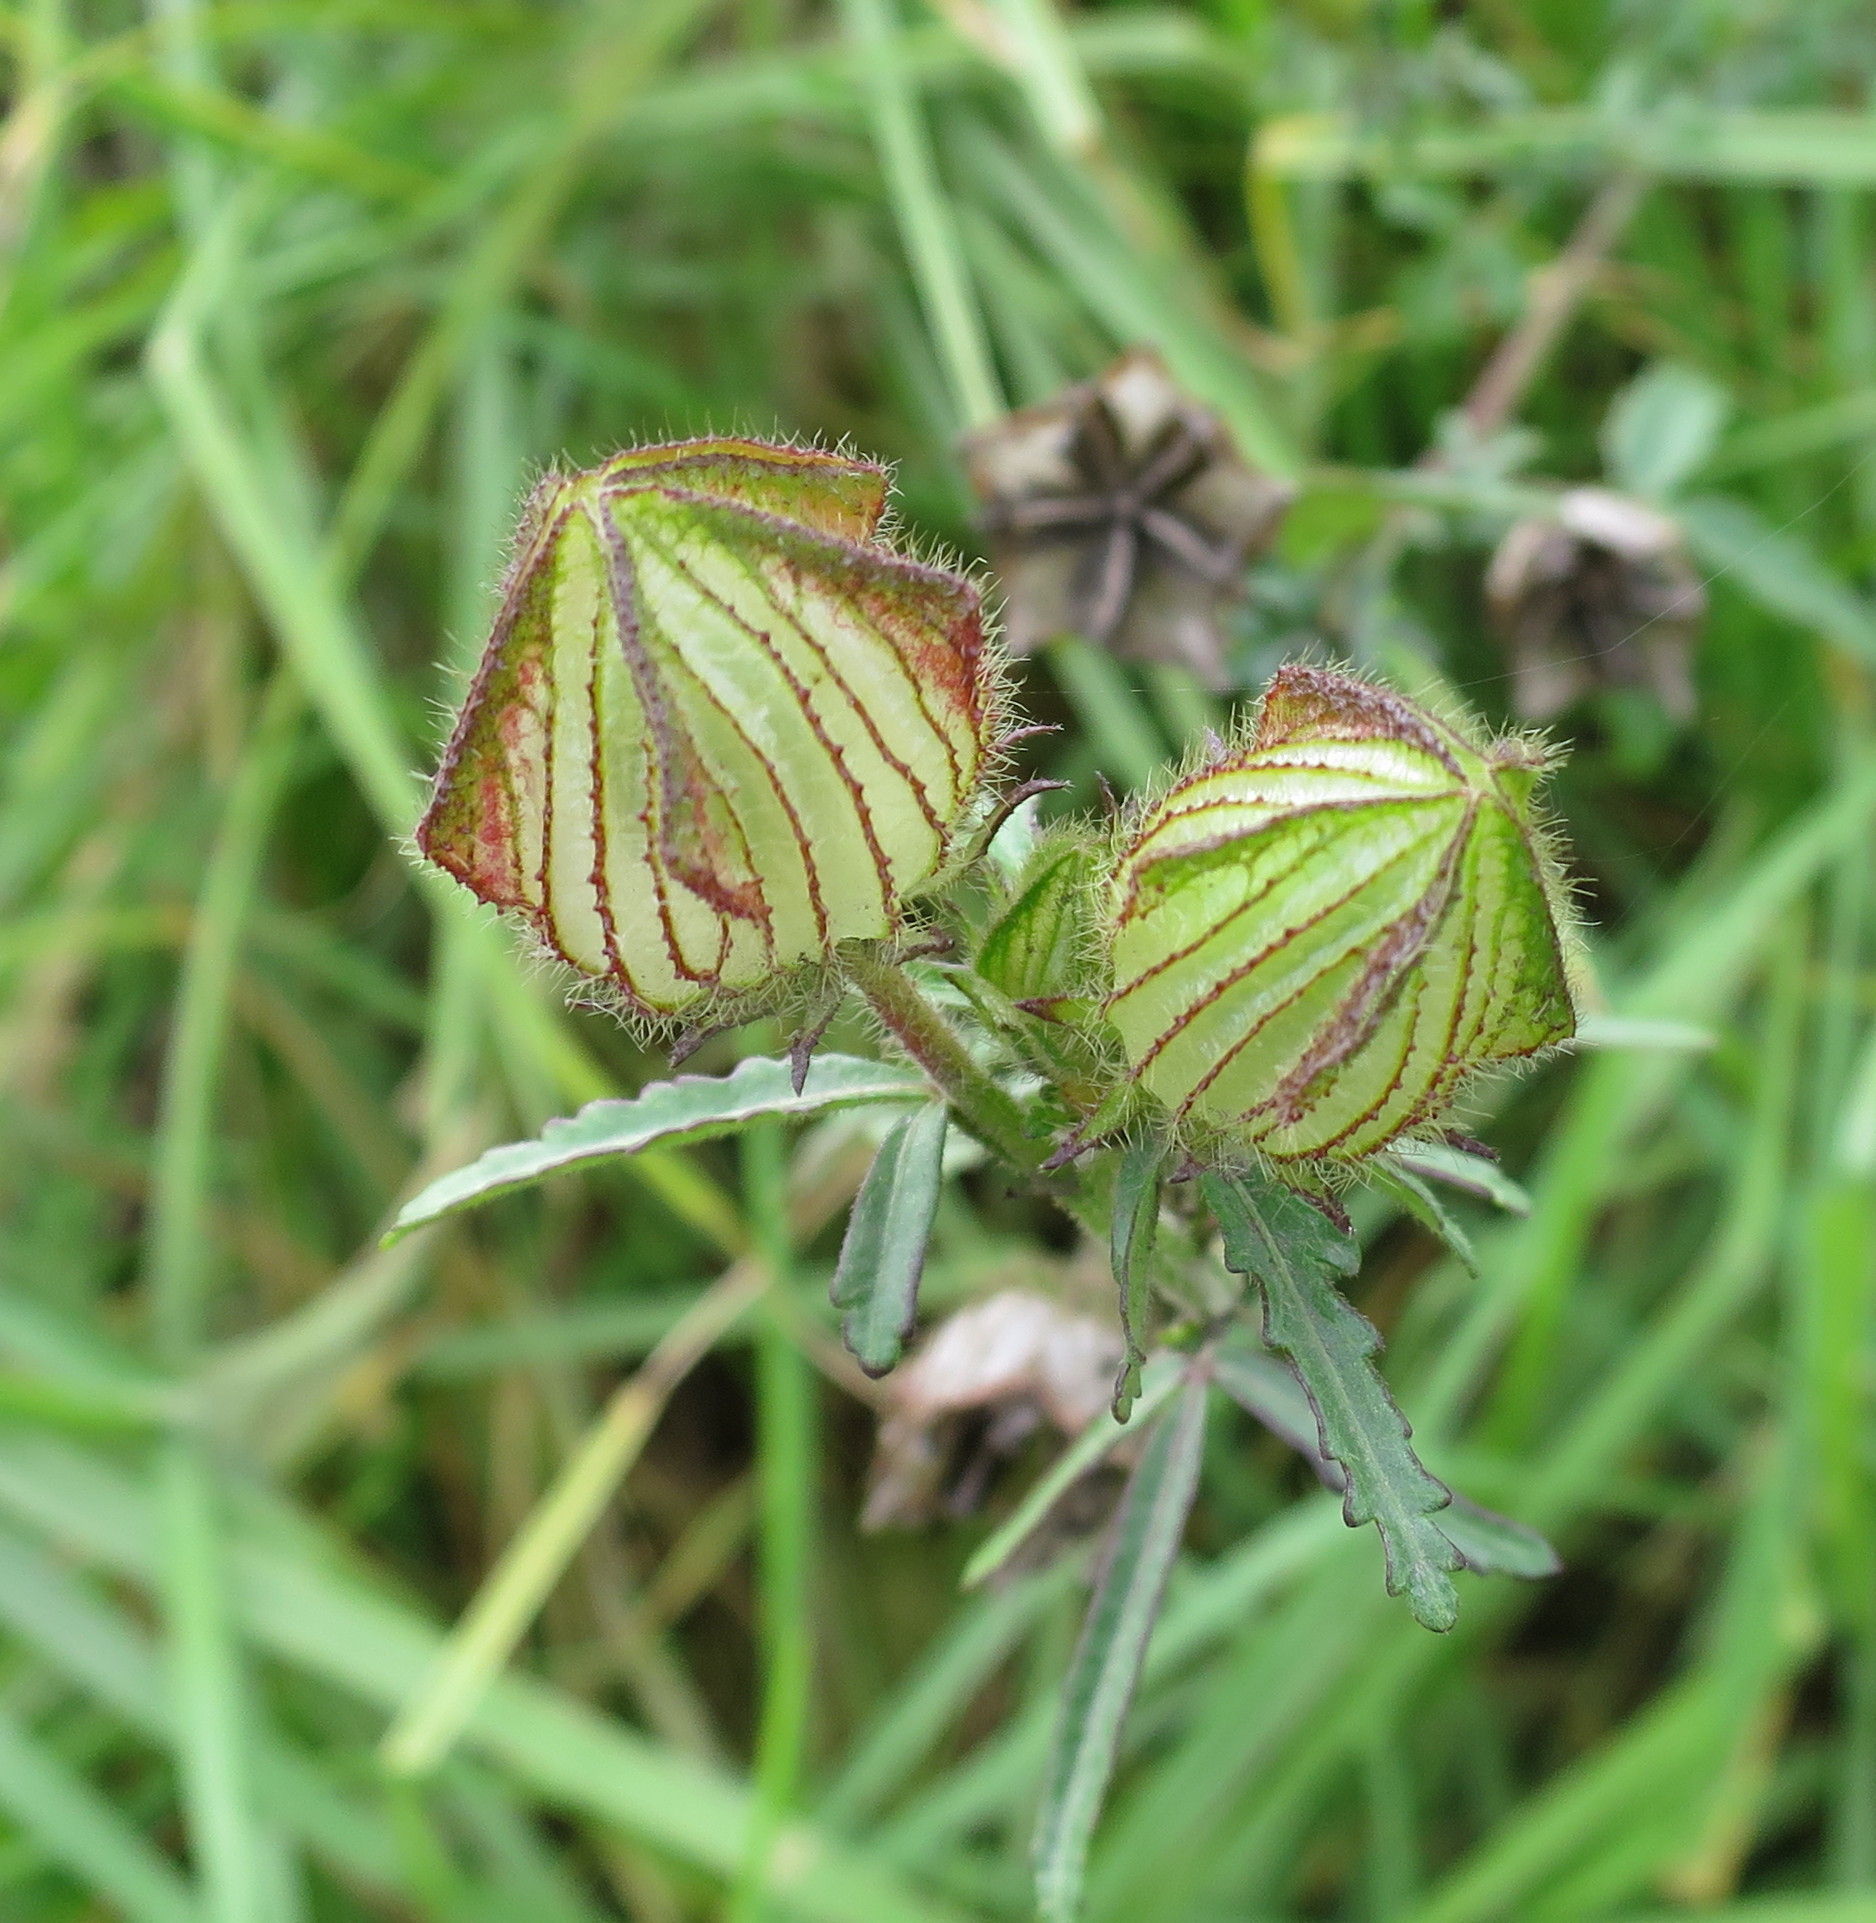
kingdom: Plantae
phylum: Tracheophyta
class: Magnoliopsida
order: Malvales
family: Malvaceae
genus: Hibiscus
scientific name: Hibiscus trionum
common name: Bladder ketmia
